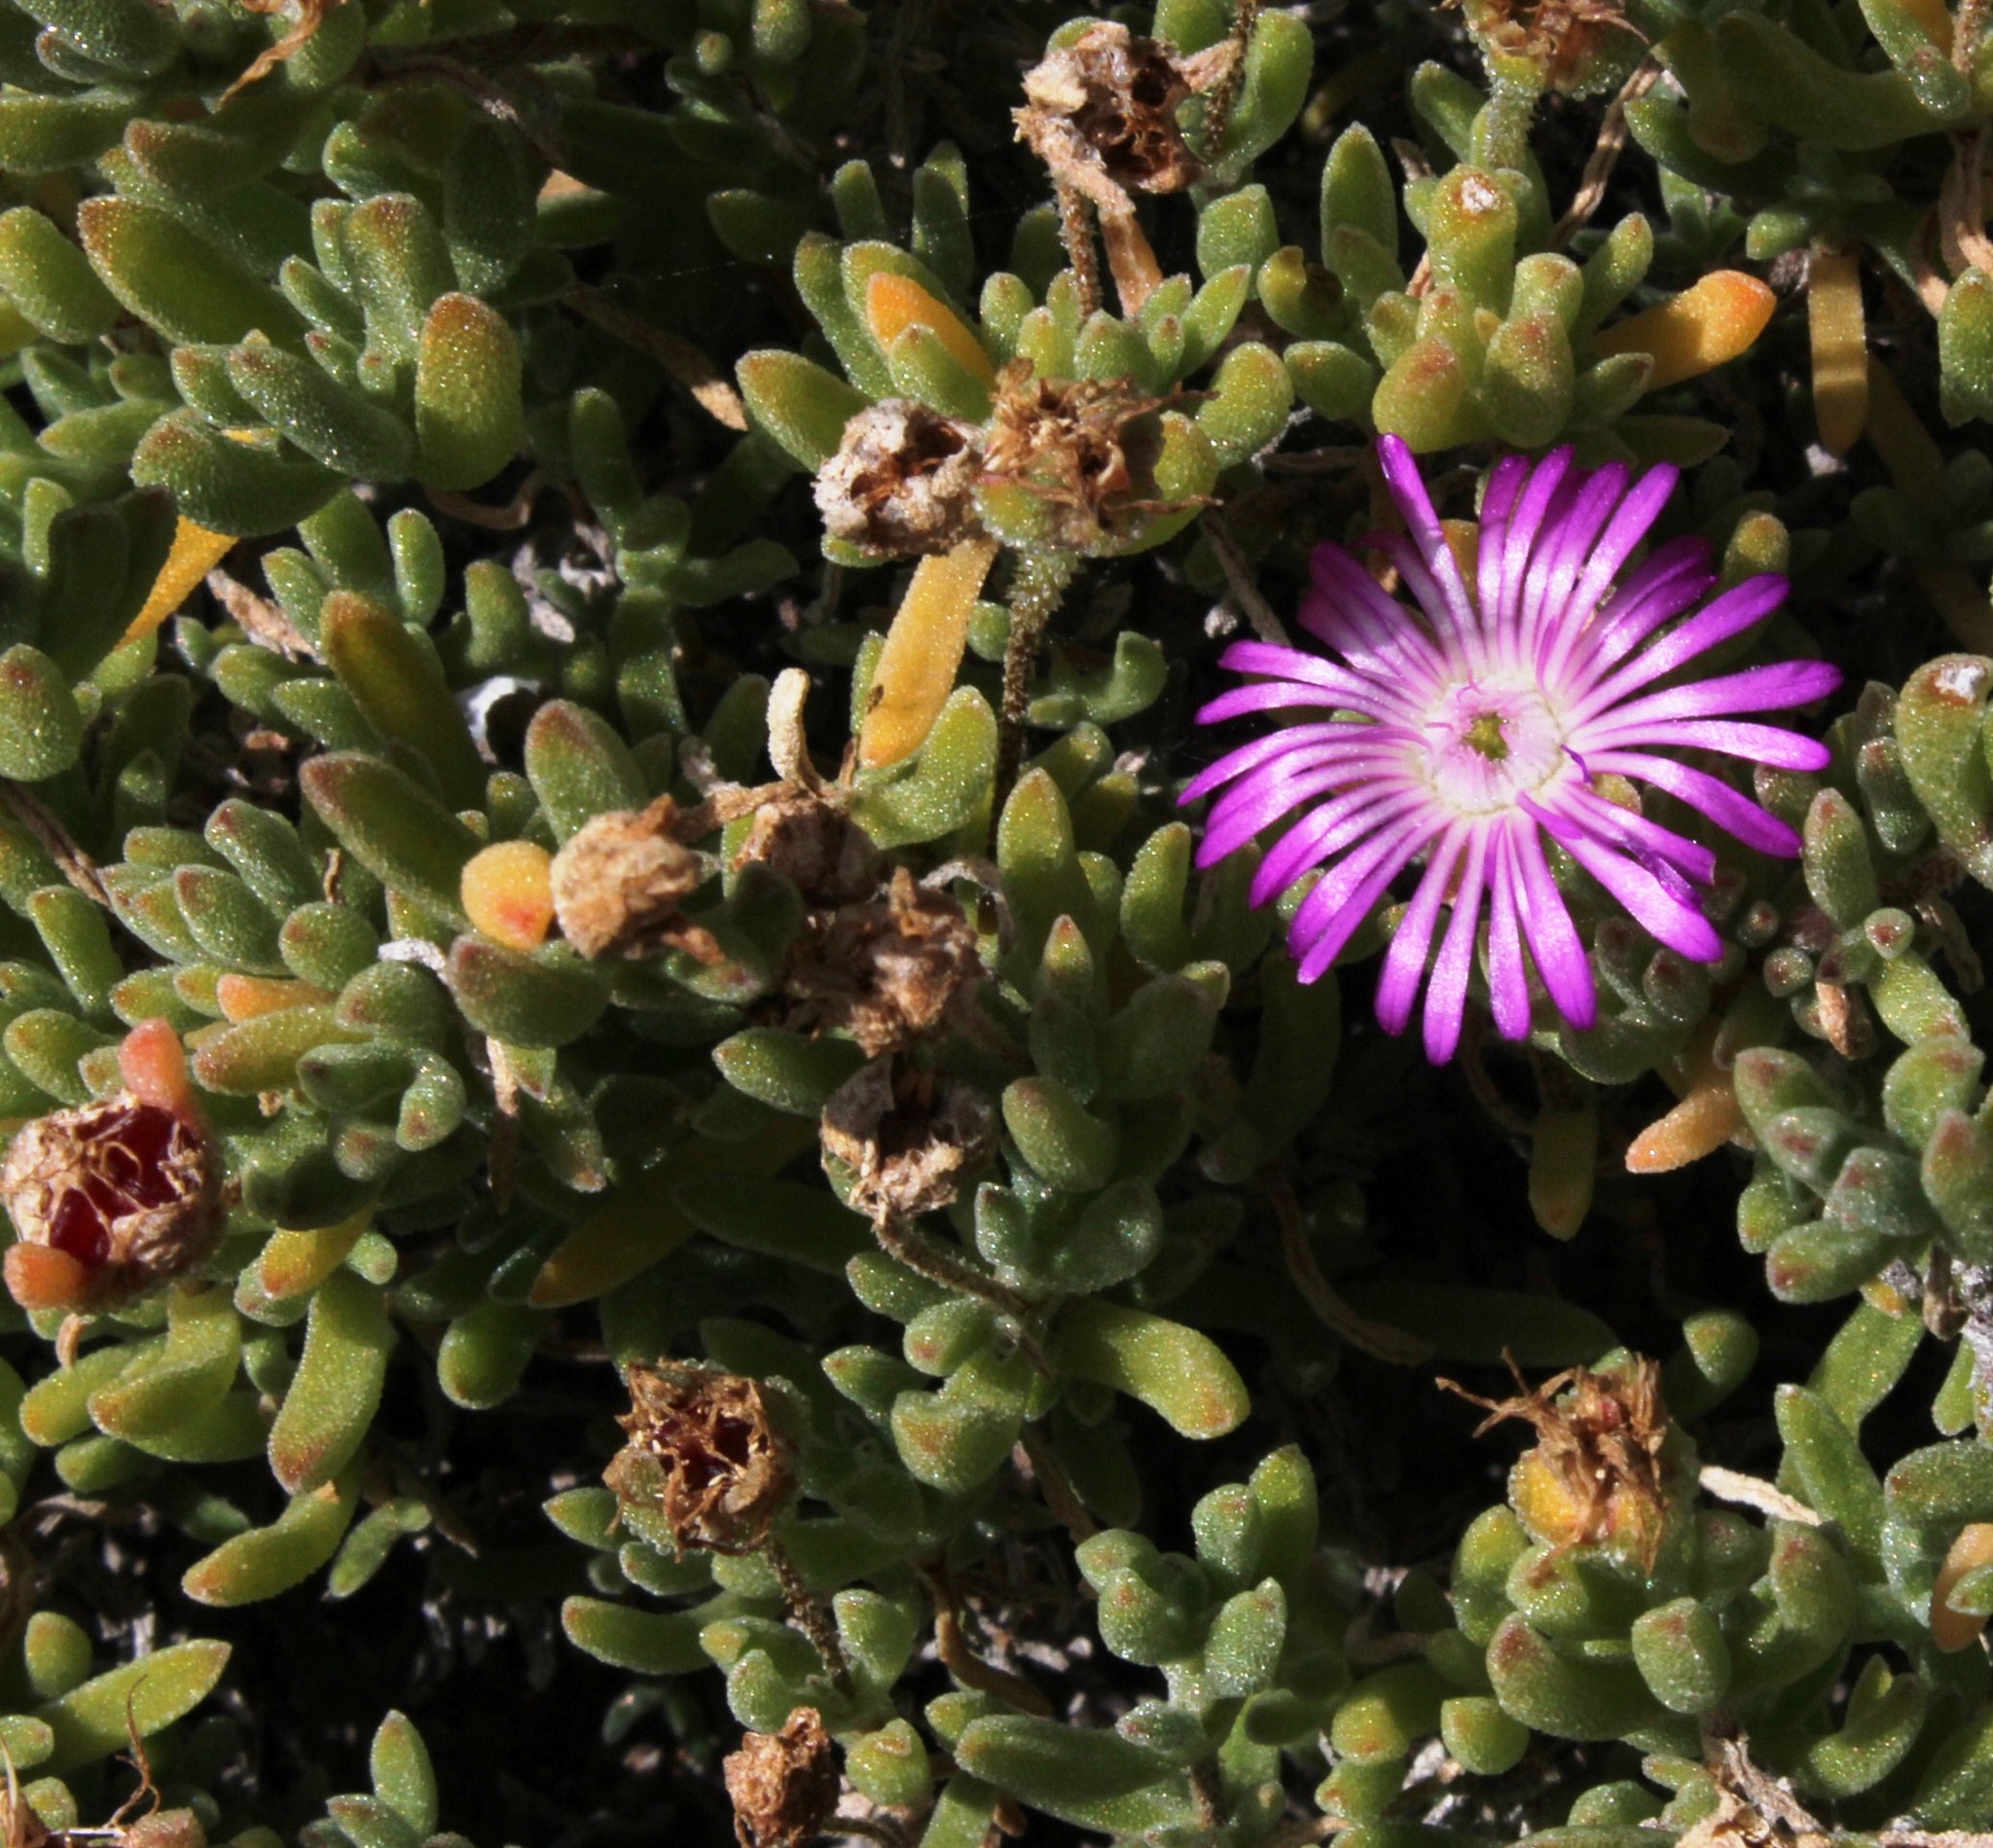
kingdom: Plantae
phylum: Tracheophyta
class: Magnoliopsida
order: Caryophyllales
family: Aizoaceae
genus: Drosanthemum
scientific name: Drosanthemum candens
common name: Rodondo-creeper
